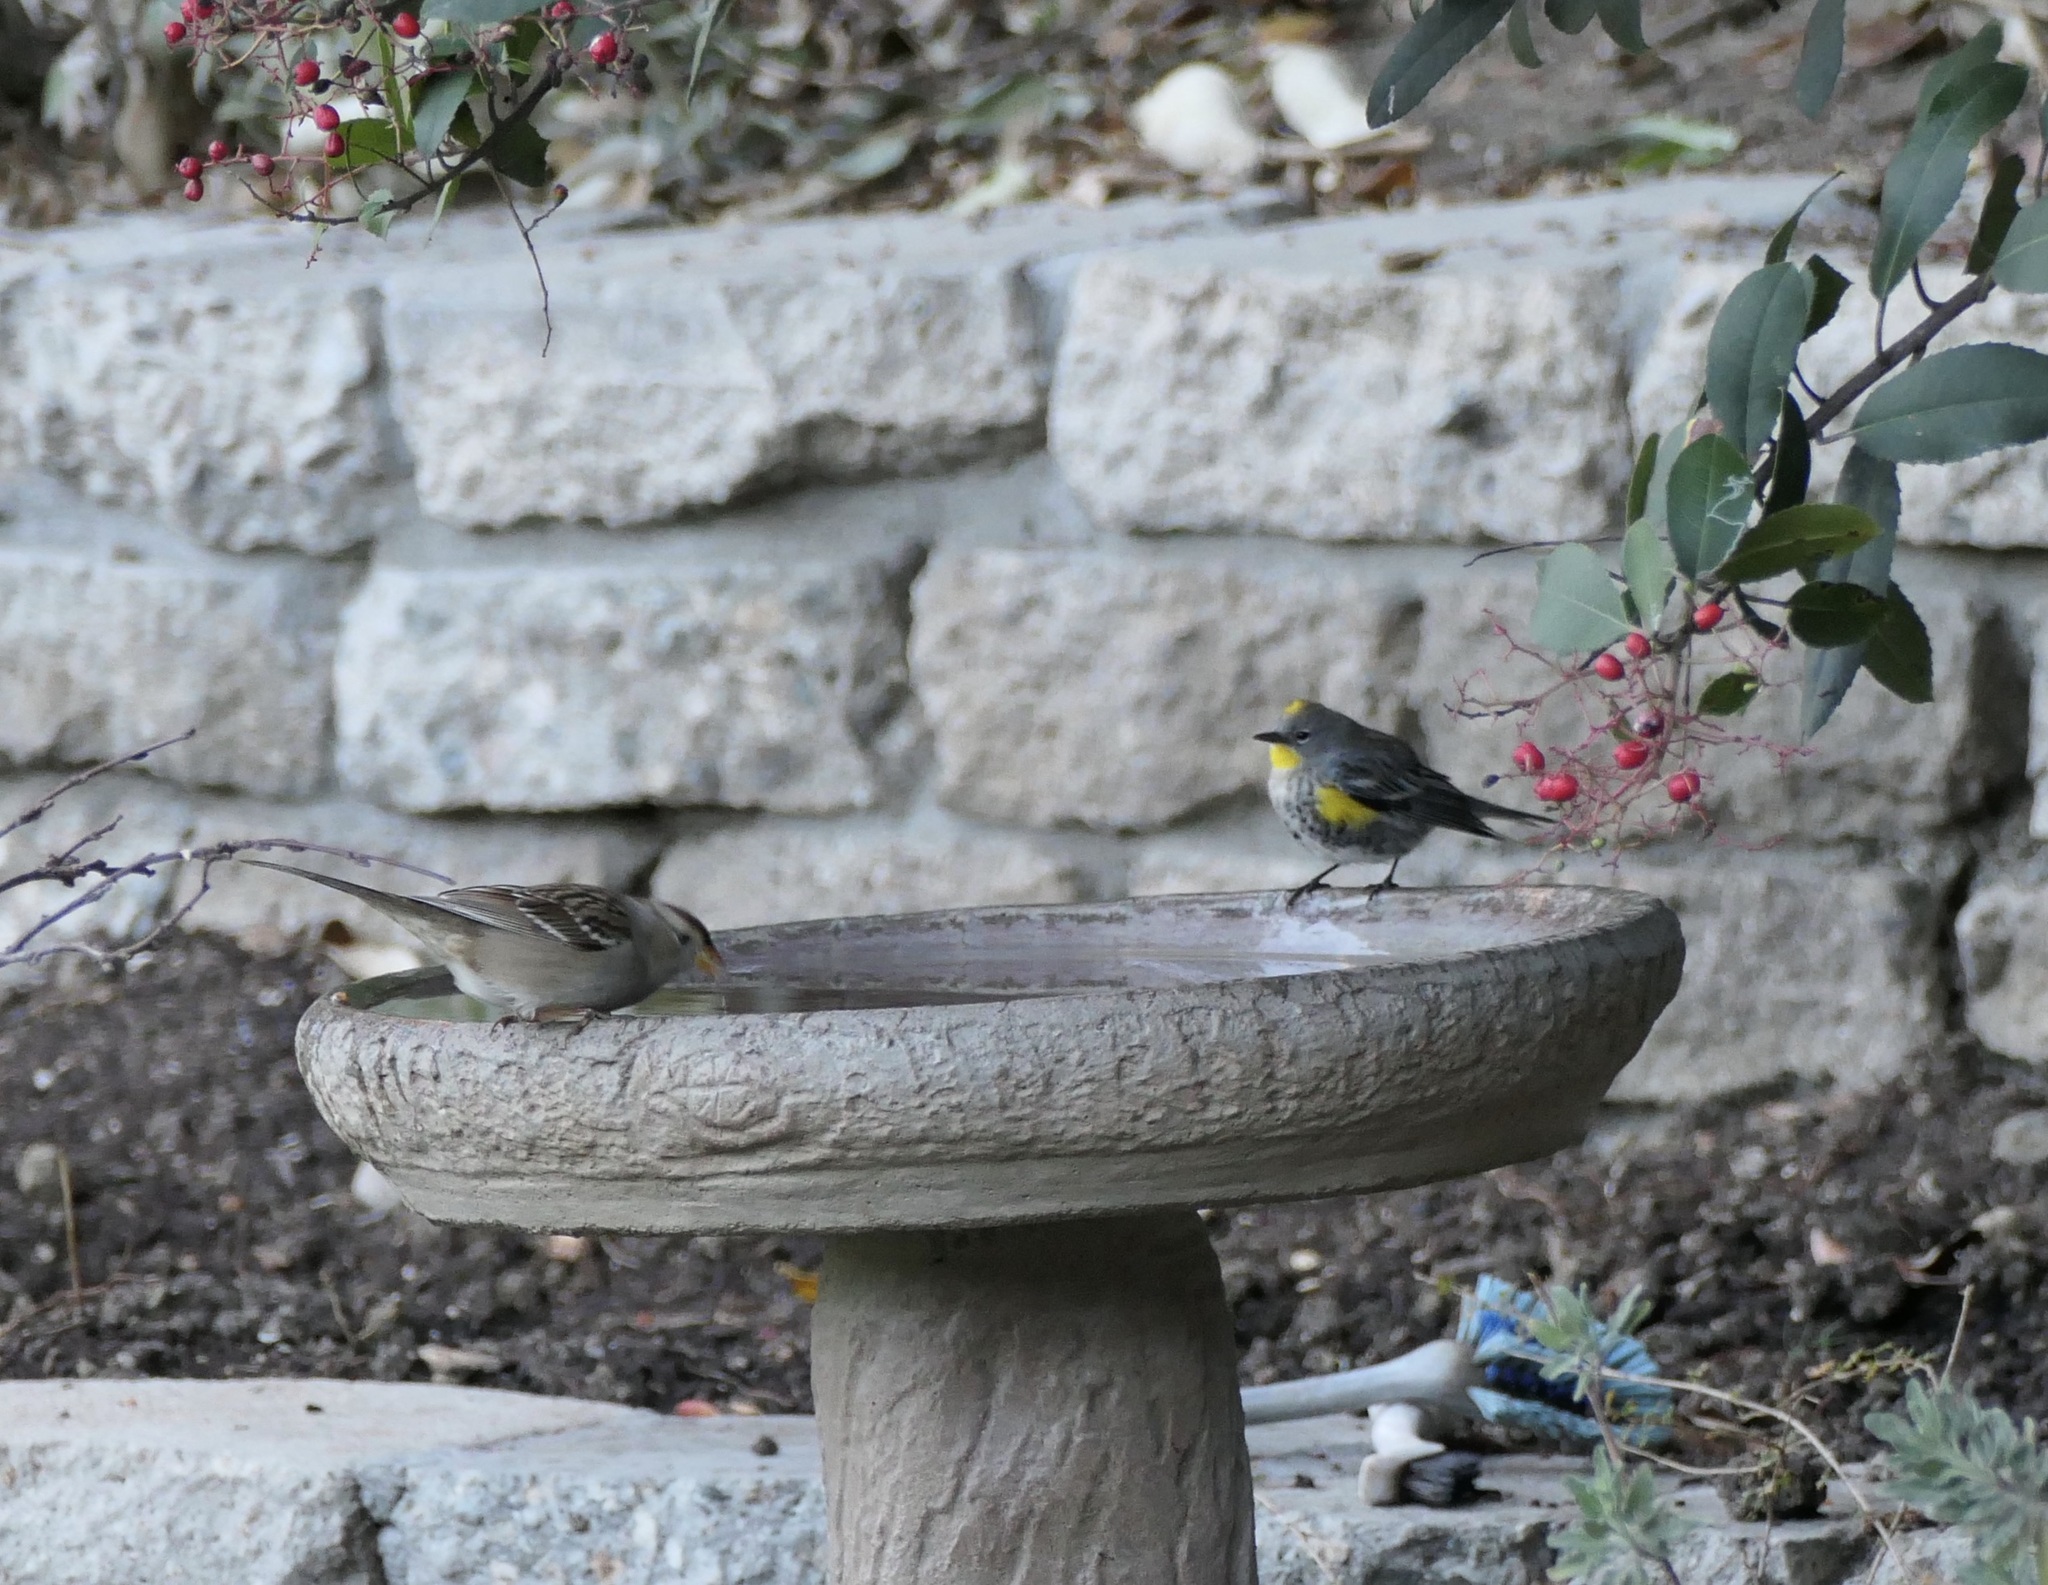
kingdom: Animalia
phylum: Chordata
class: Aves
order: Passeriformes
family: Parulidae
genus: Setophaga
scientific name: Setophaga coronata
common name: Myrtle warbler
